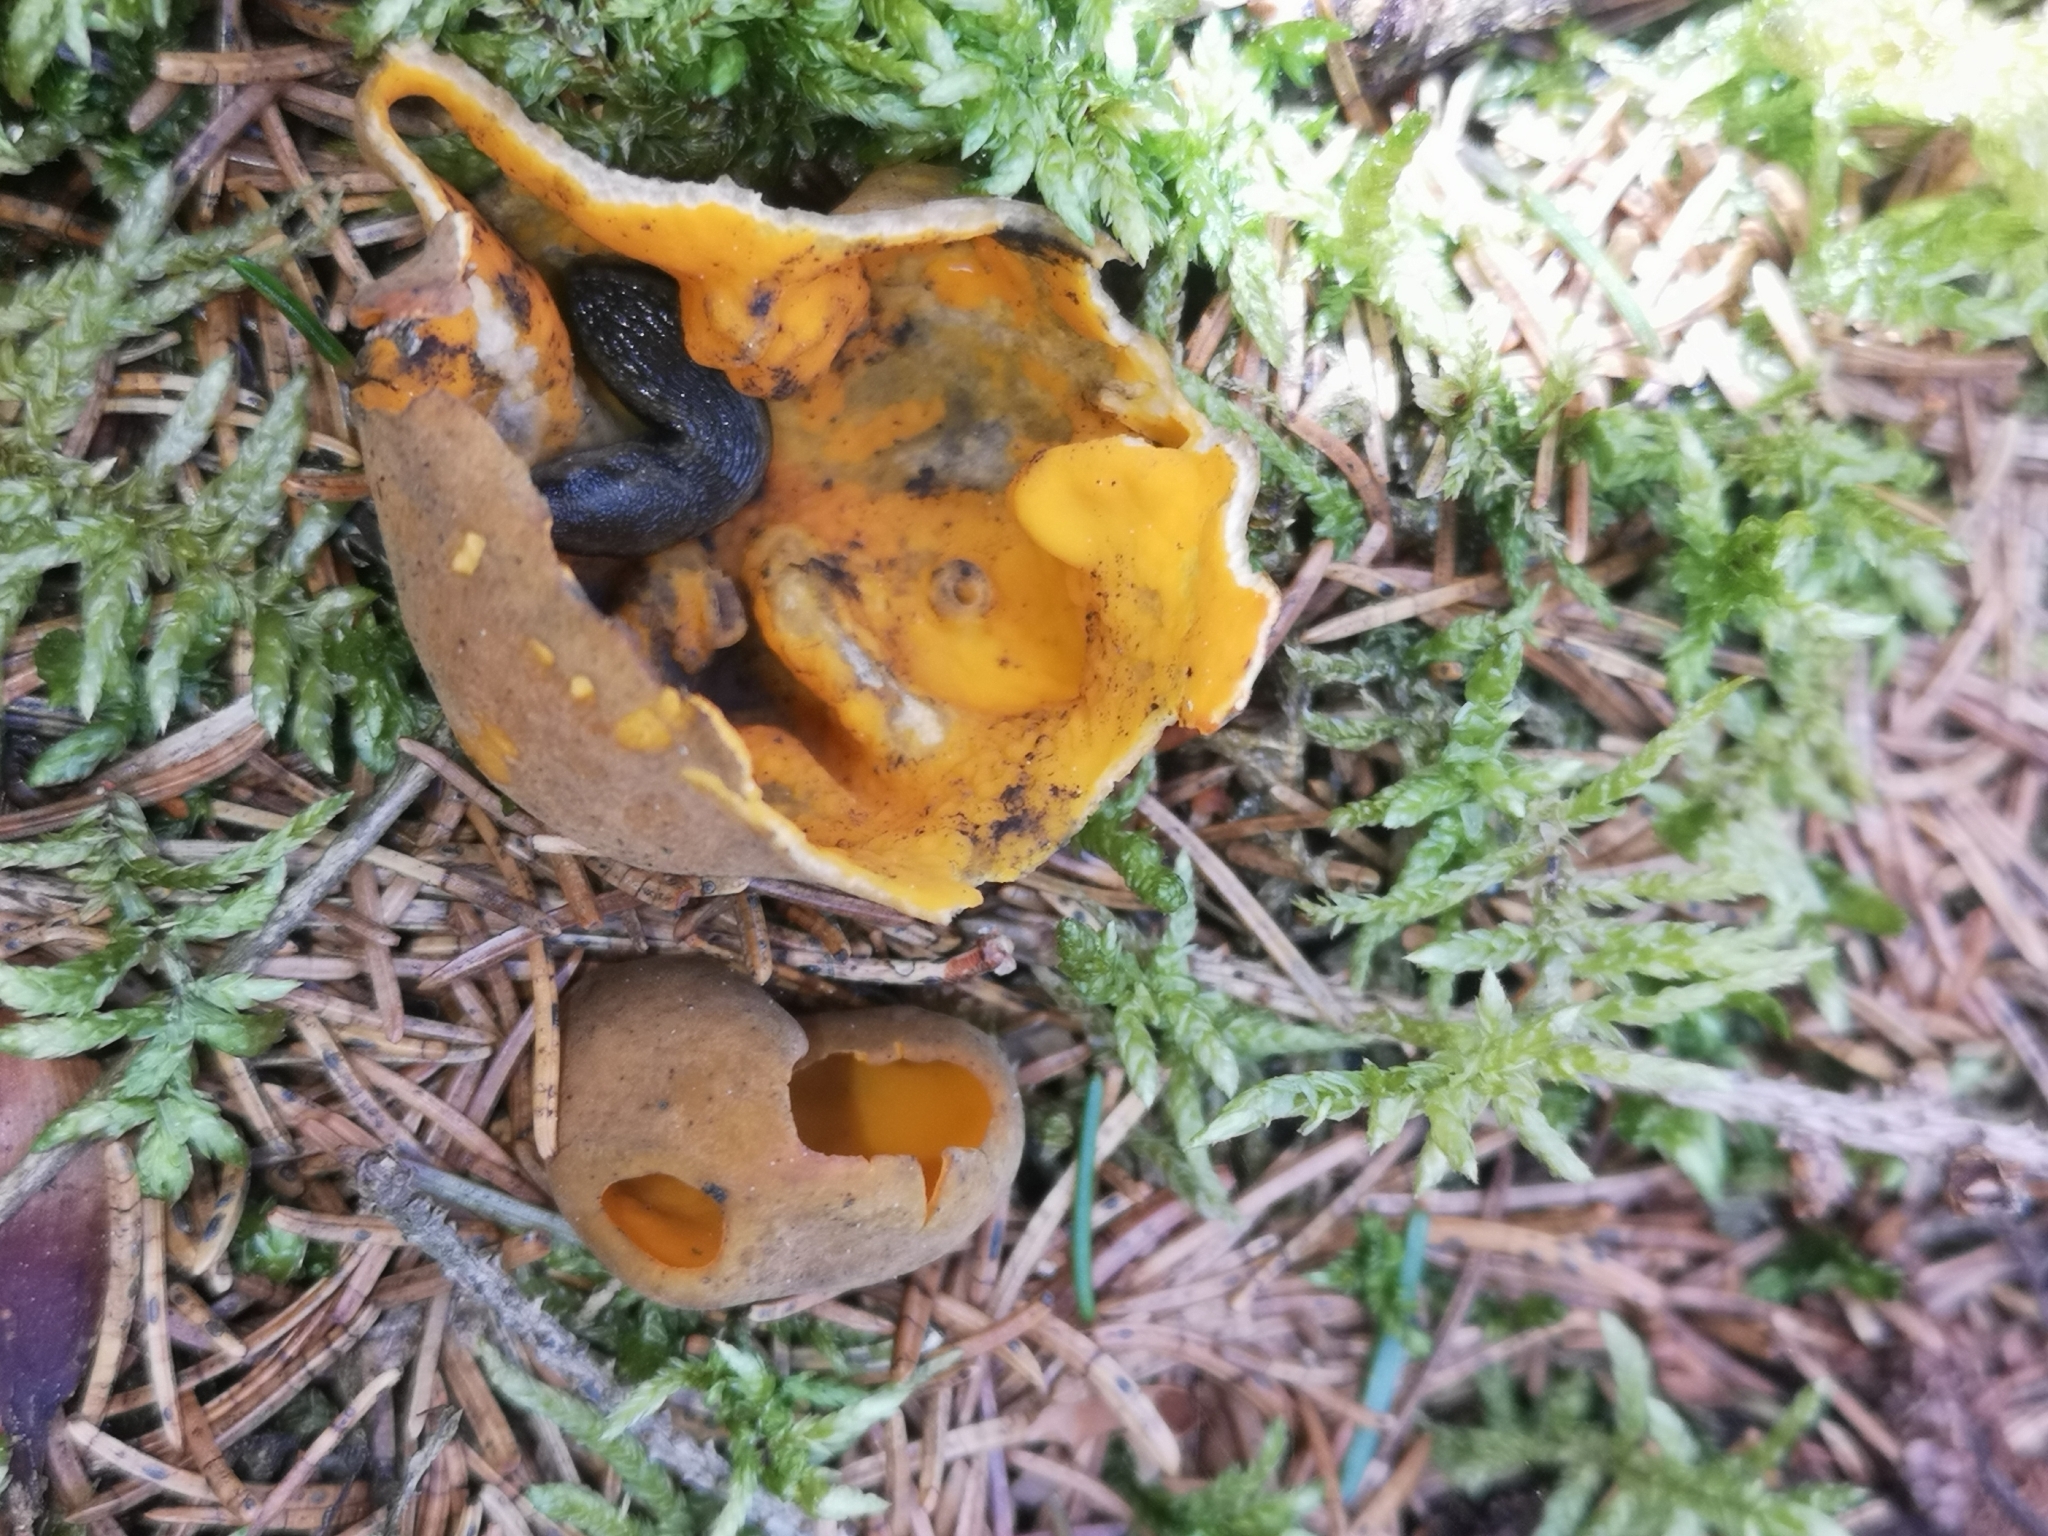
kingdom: Fungi
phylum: Ascomycota
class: Pezizomycetes
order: Pezizales
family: Caloscyphaceae
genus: Caloscypha
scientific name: Caloscypha fulgens
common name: Golden cup
